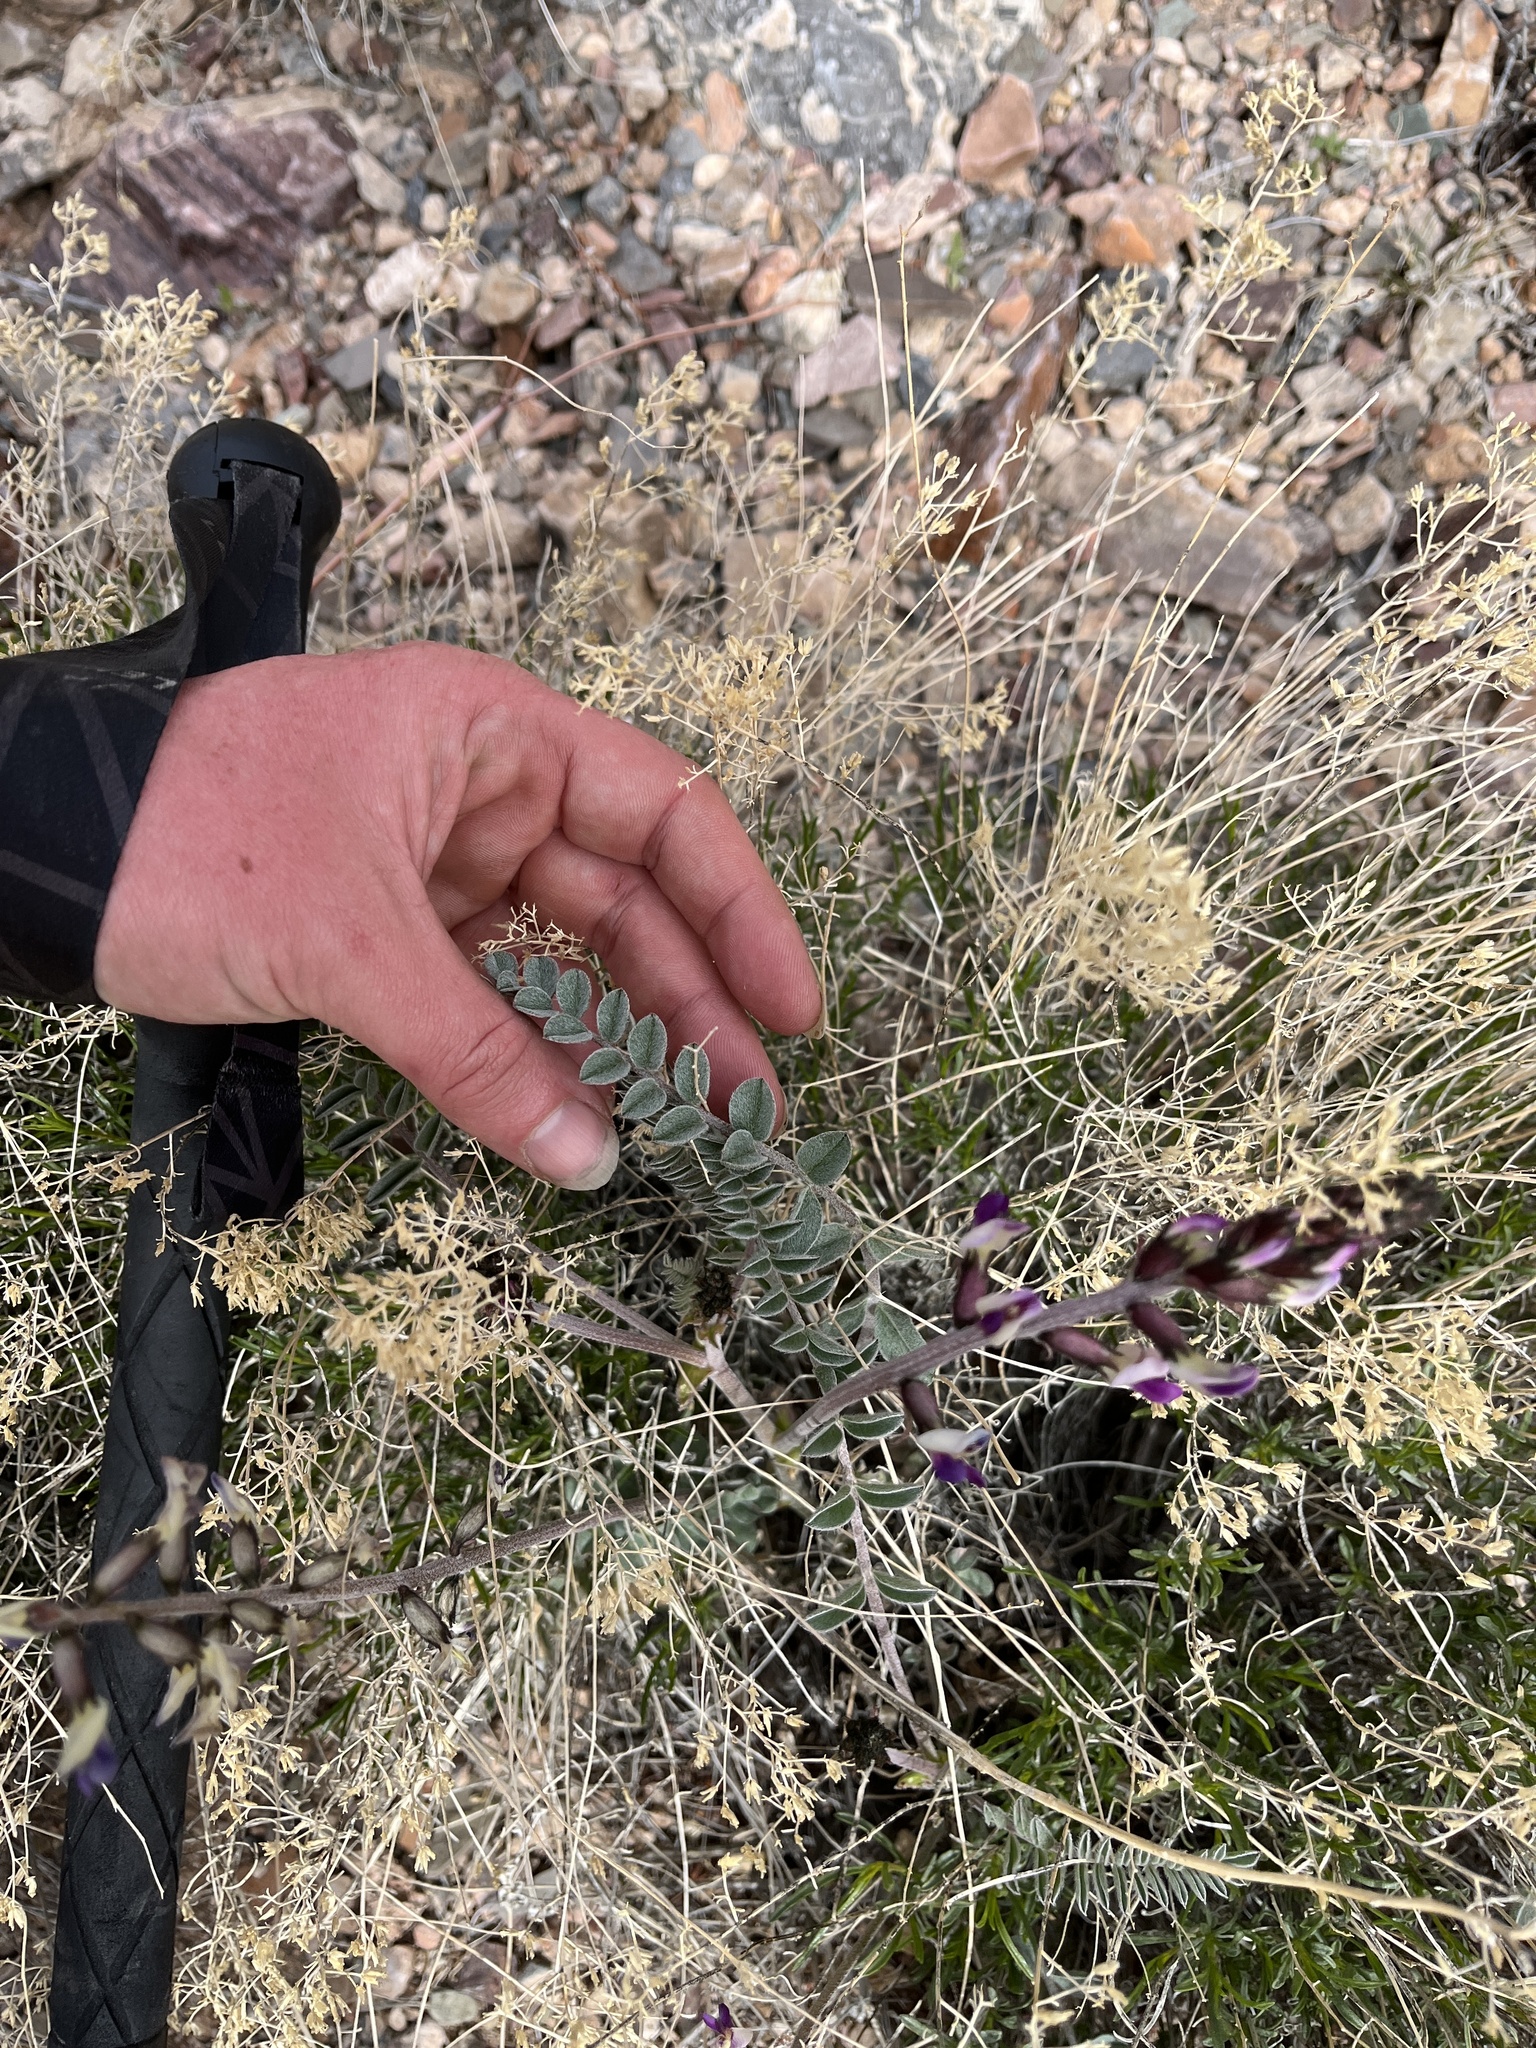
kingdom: Plantae
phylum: Tracheophyta
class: Magnoliopsida
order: Fabales
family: Fabaceae
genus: Astragalus
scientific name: Astragalus layneae
